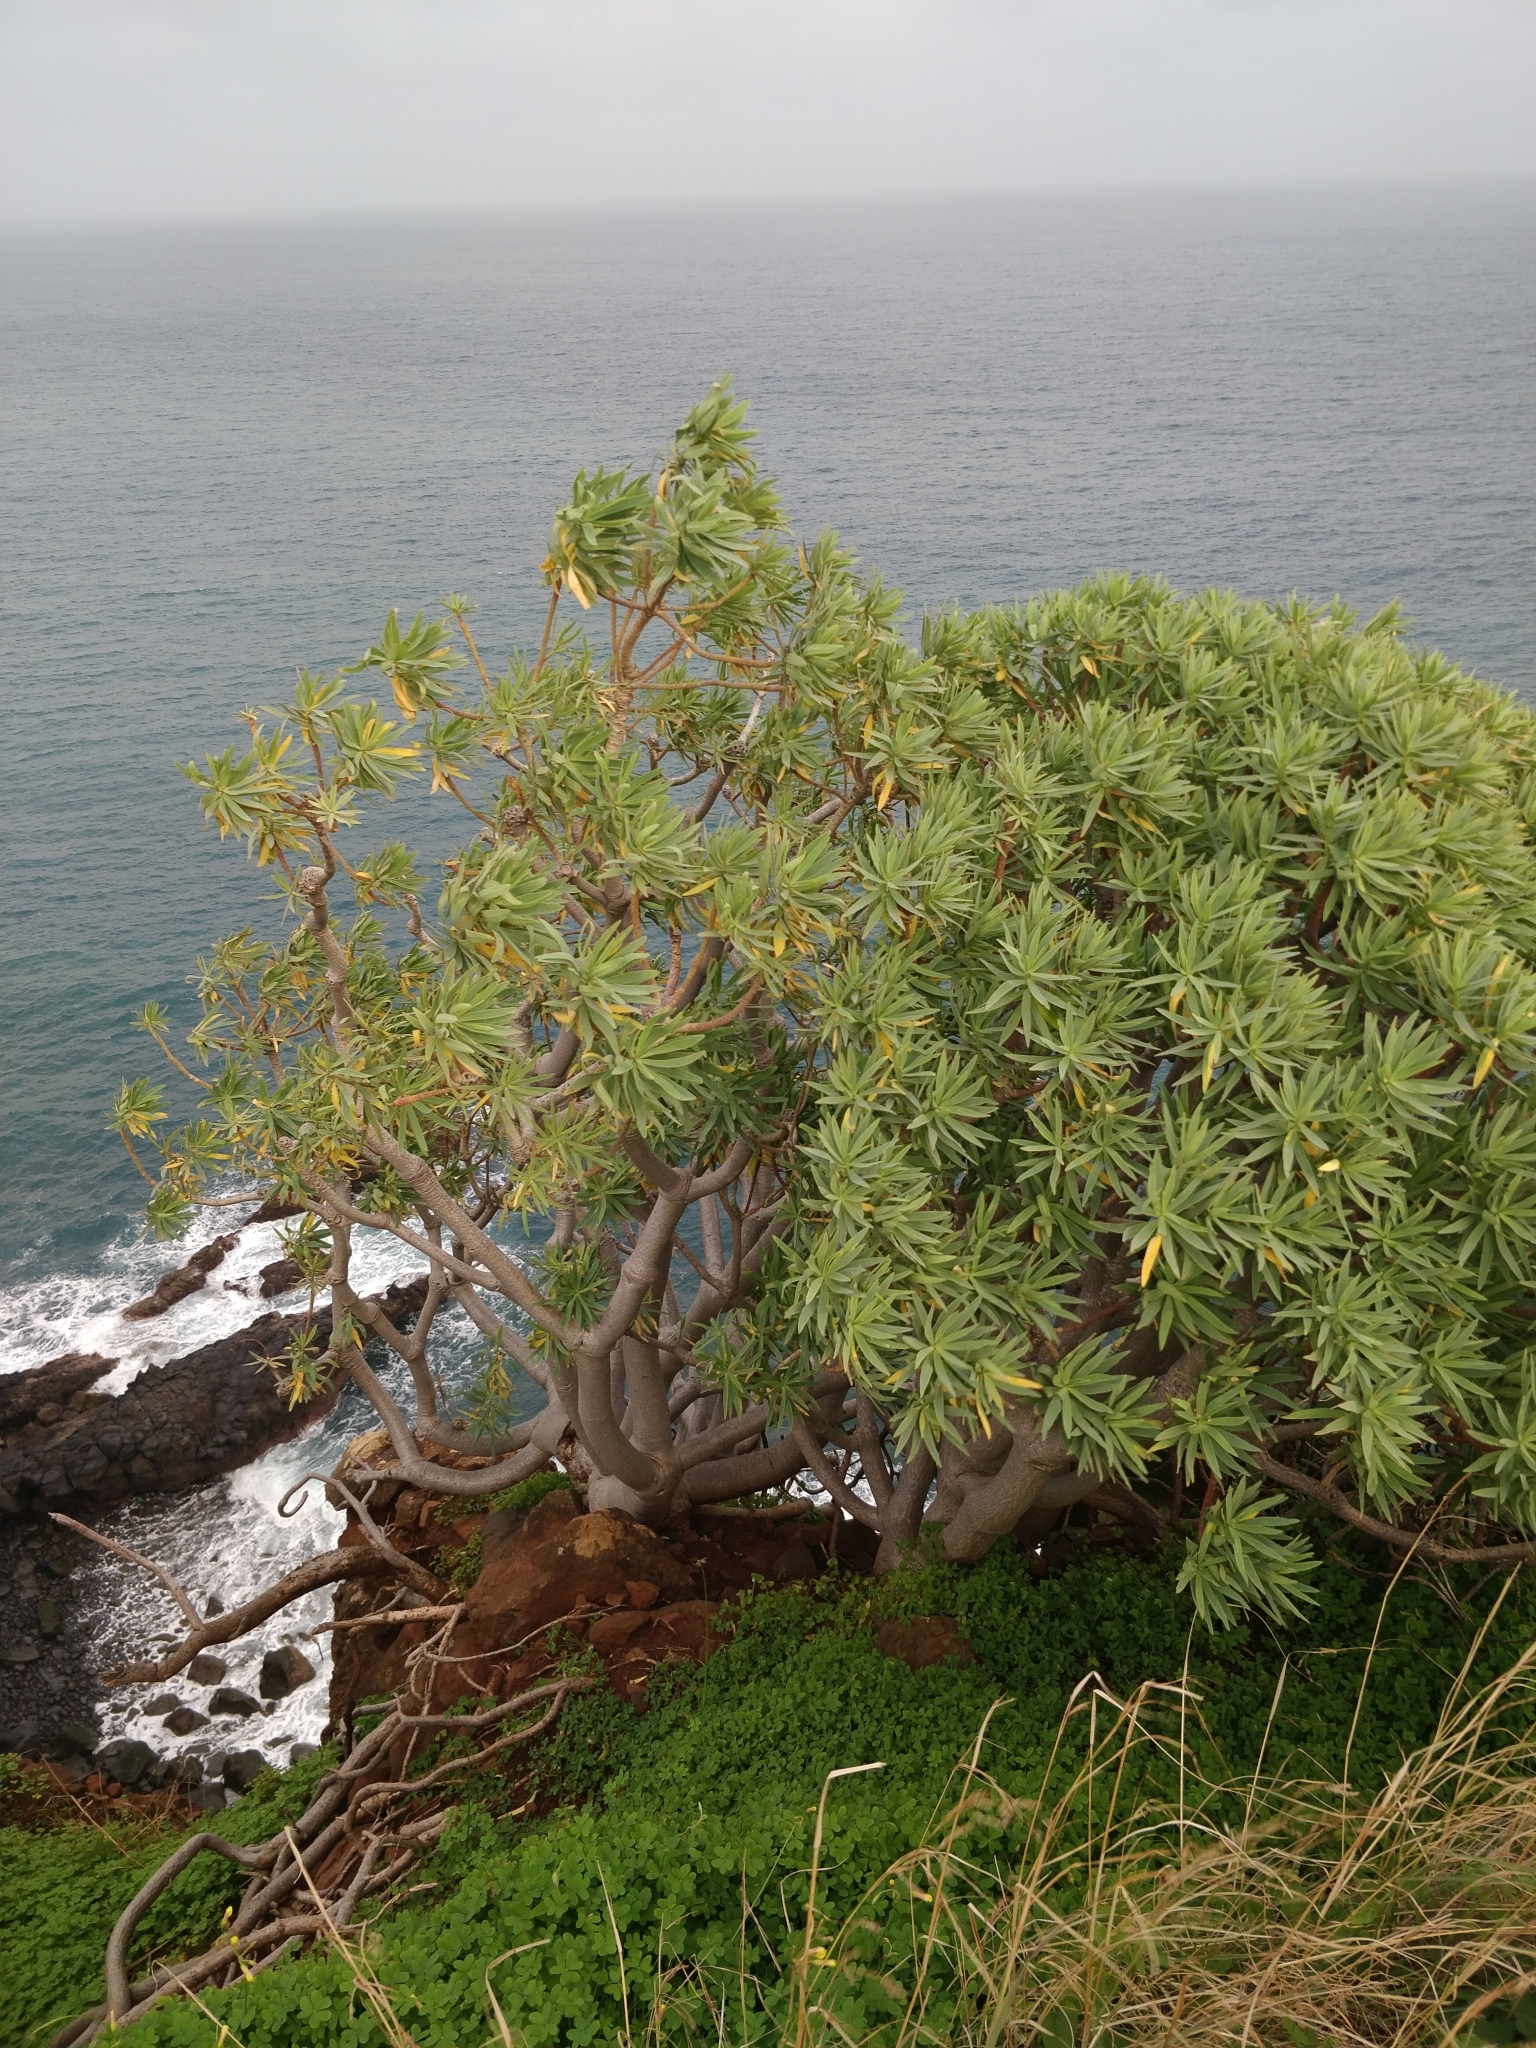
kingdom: Plantae
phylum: Tracheophyta
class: Magnoliopsida
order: Malpighiales
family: Euphorbiaceae
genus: Euphorbia
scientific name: Euphorbia piscatoria
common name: Fish-stunning spurge
